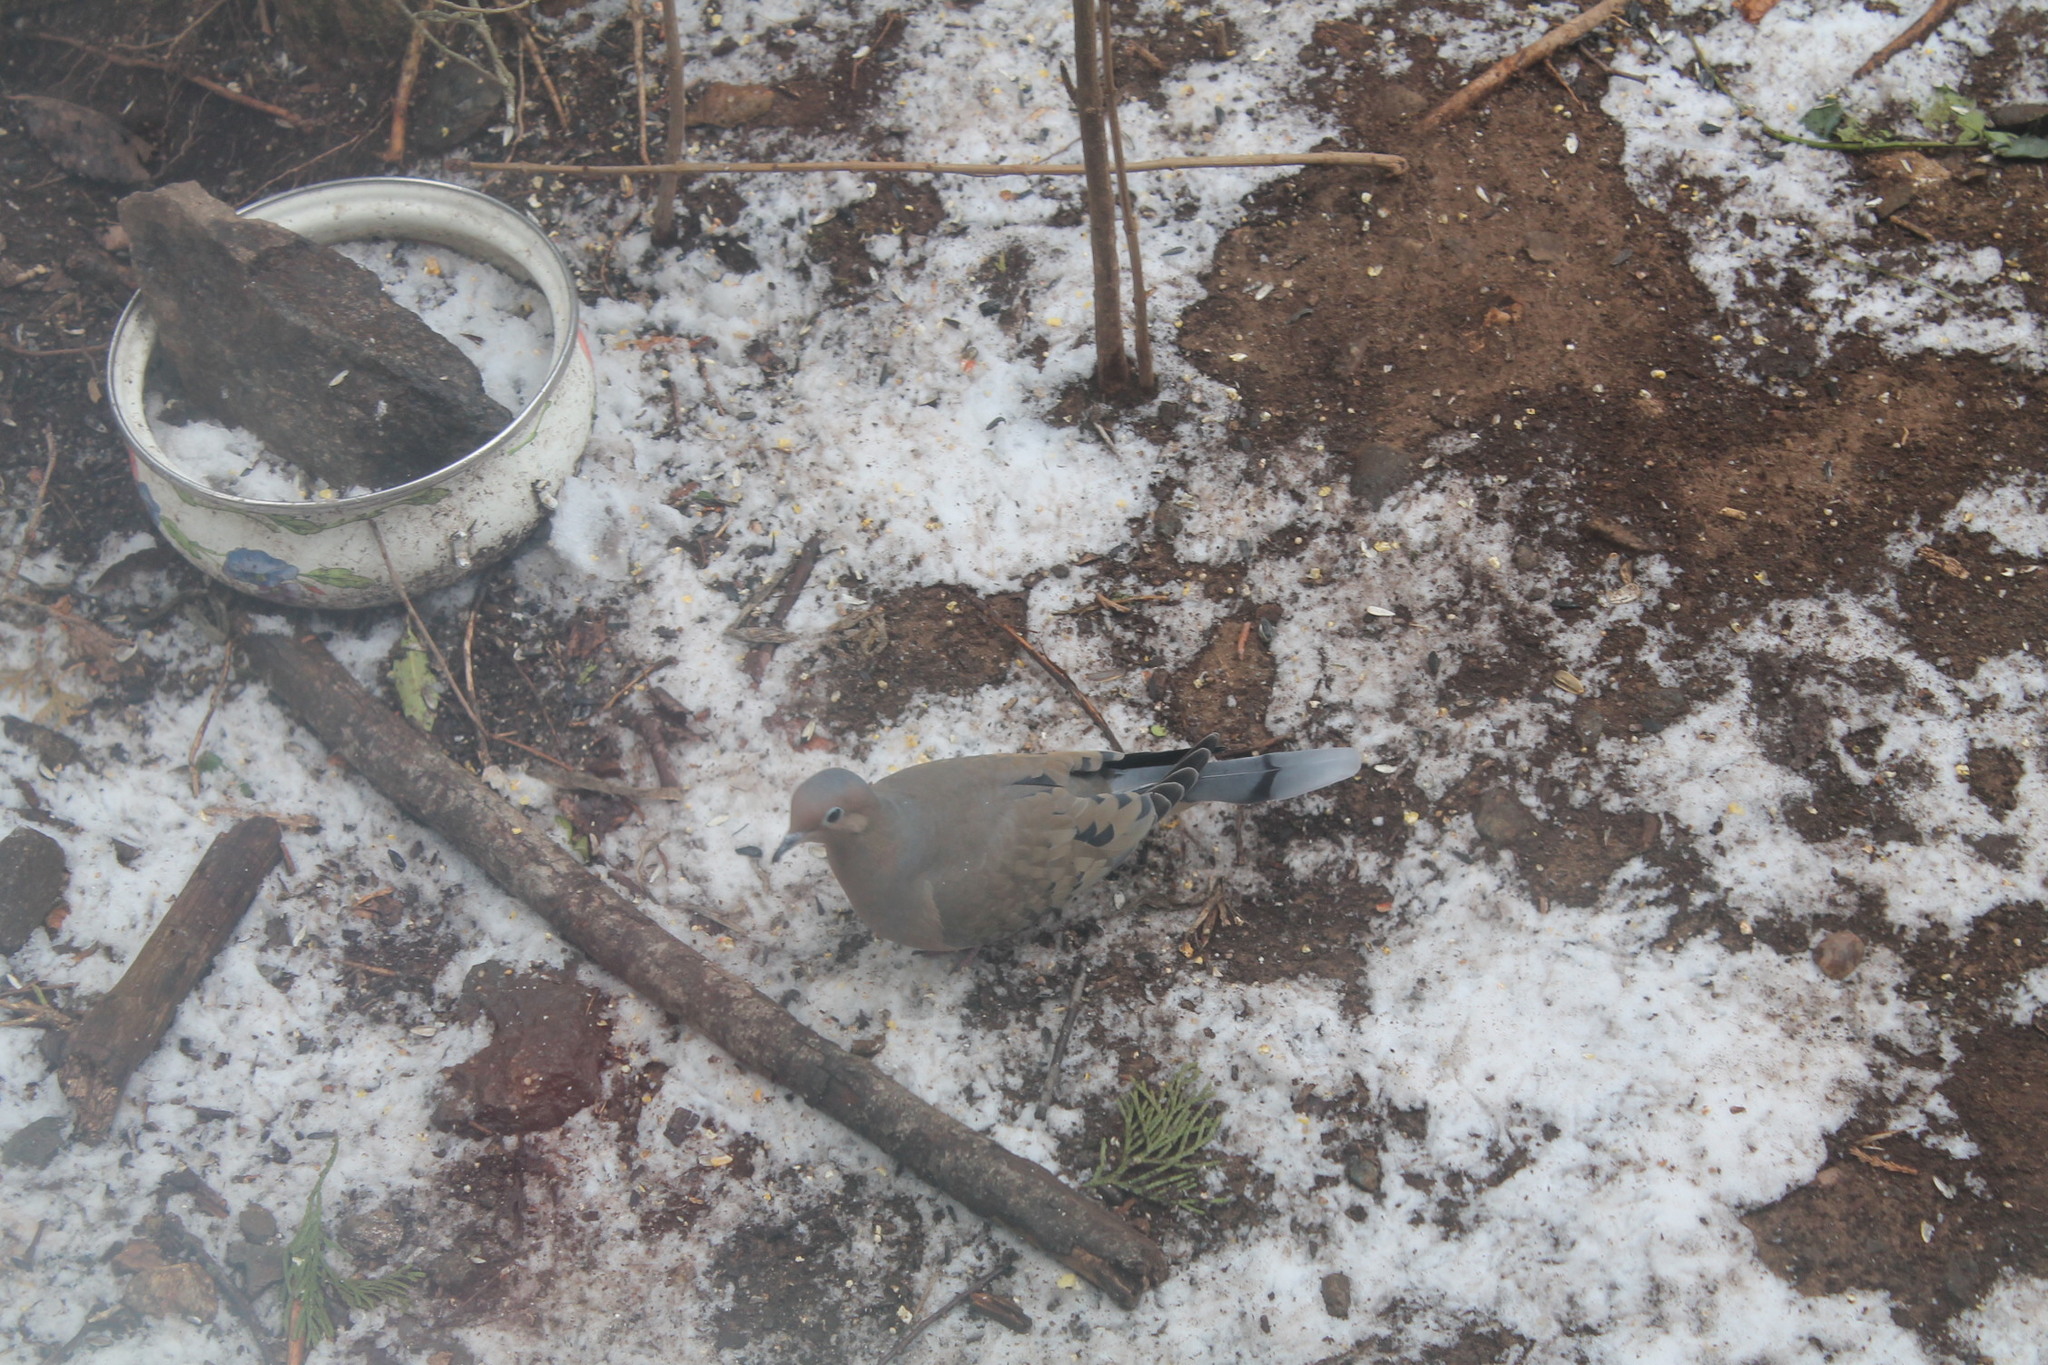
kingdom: Animalia
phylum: Chordata
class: Aves
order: Columbiformes
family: Columbidae
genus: Zenaida
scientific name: Zenaida macroura
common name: Mourning dove
